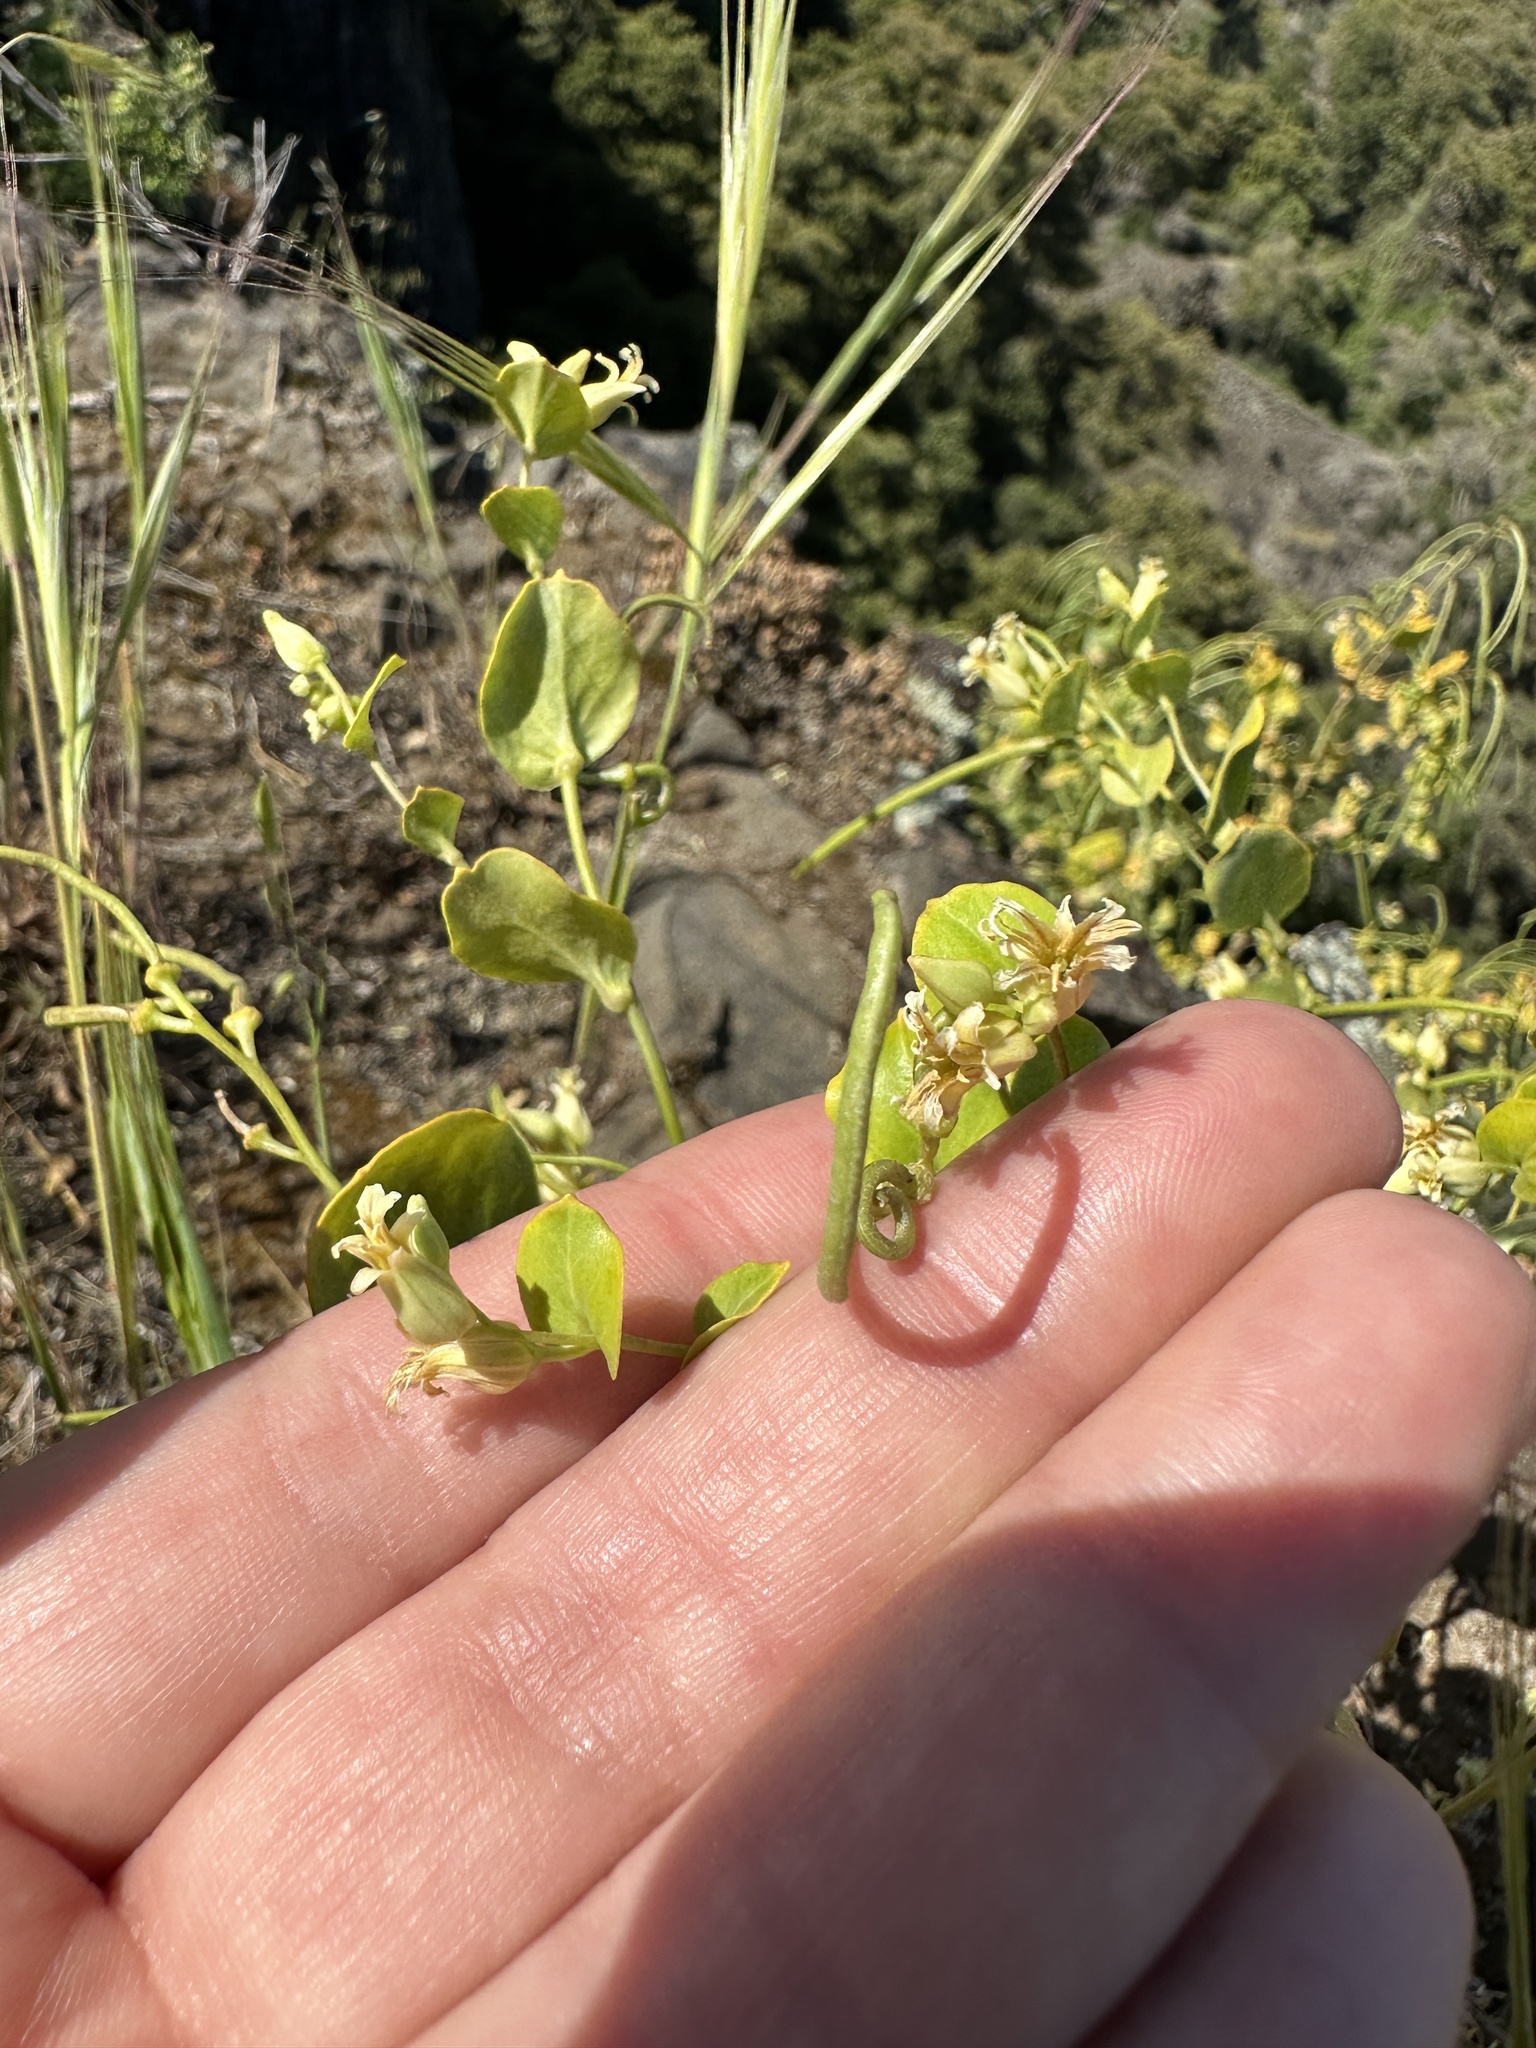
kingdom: Plantae
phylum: Tracheophyta
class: Magnoliopsida
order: Brassicales
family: Brassicaceae
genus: Streptanthus
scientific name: Streptanthus tortuosus
